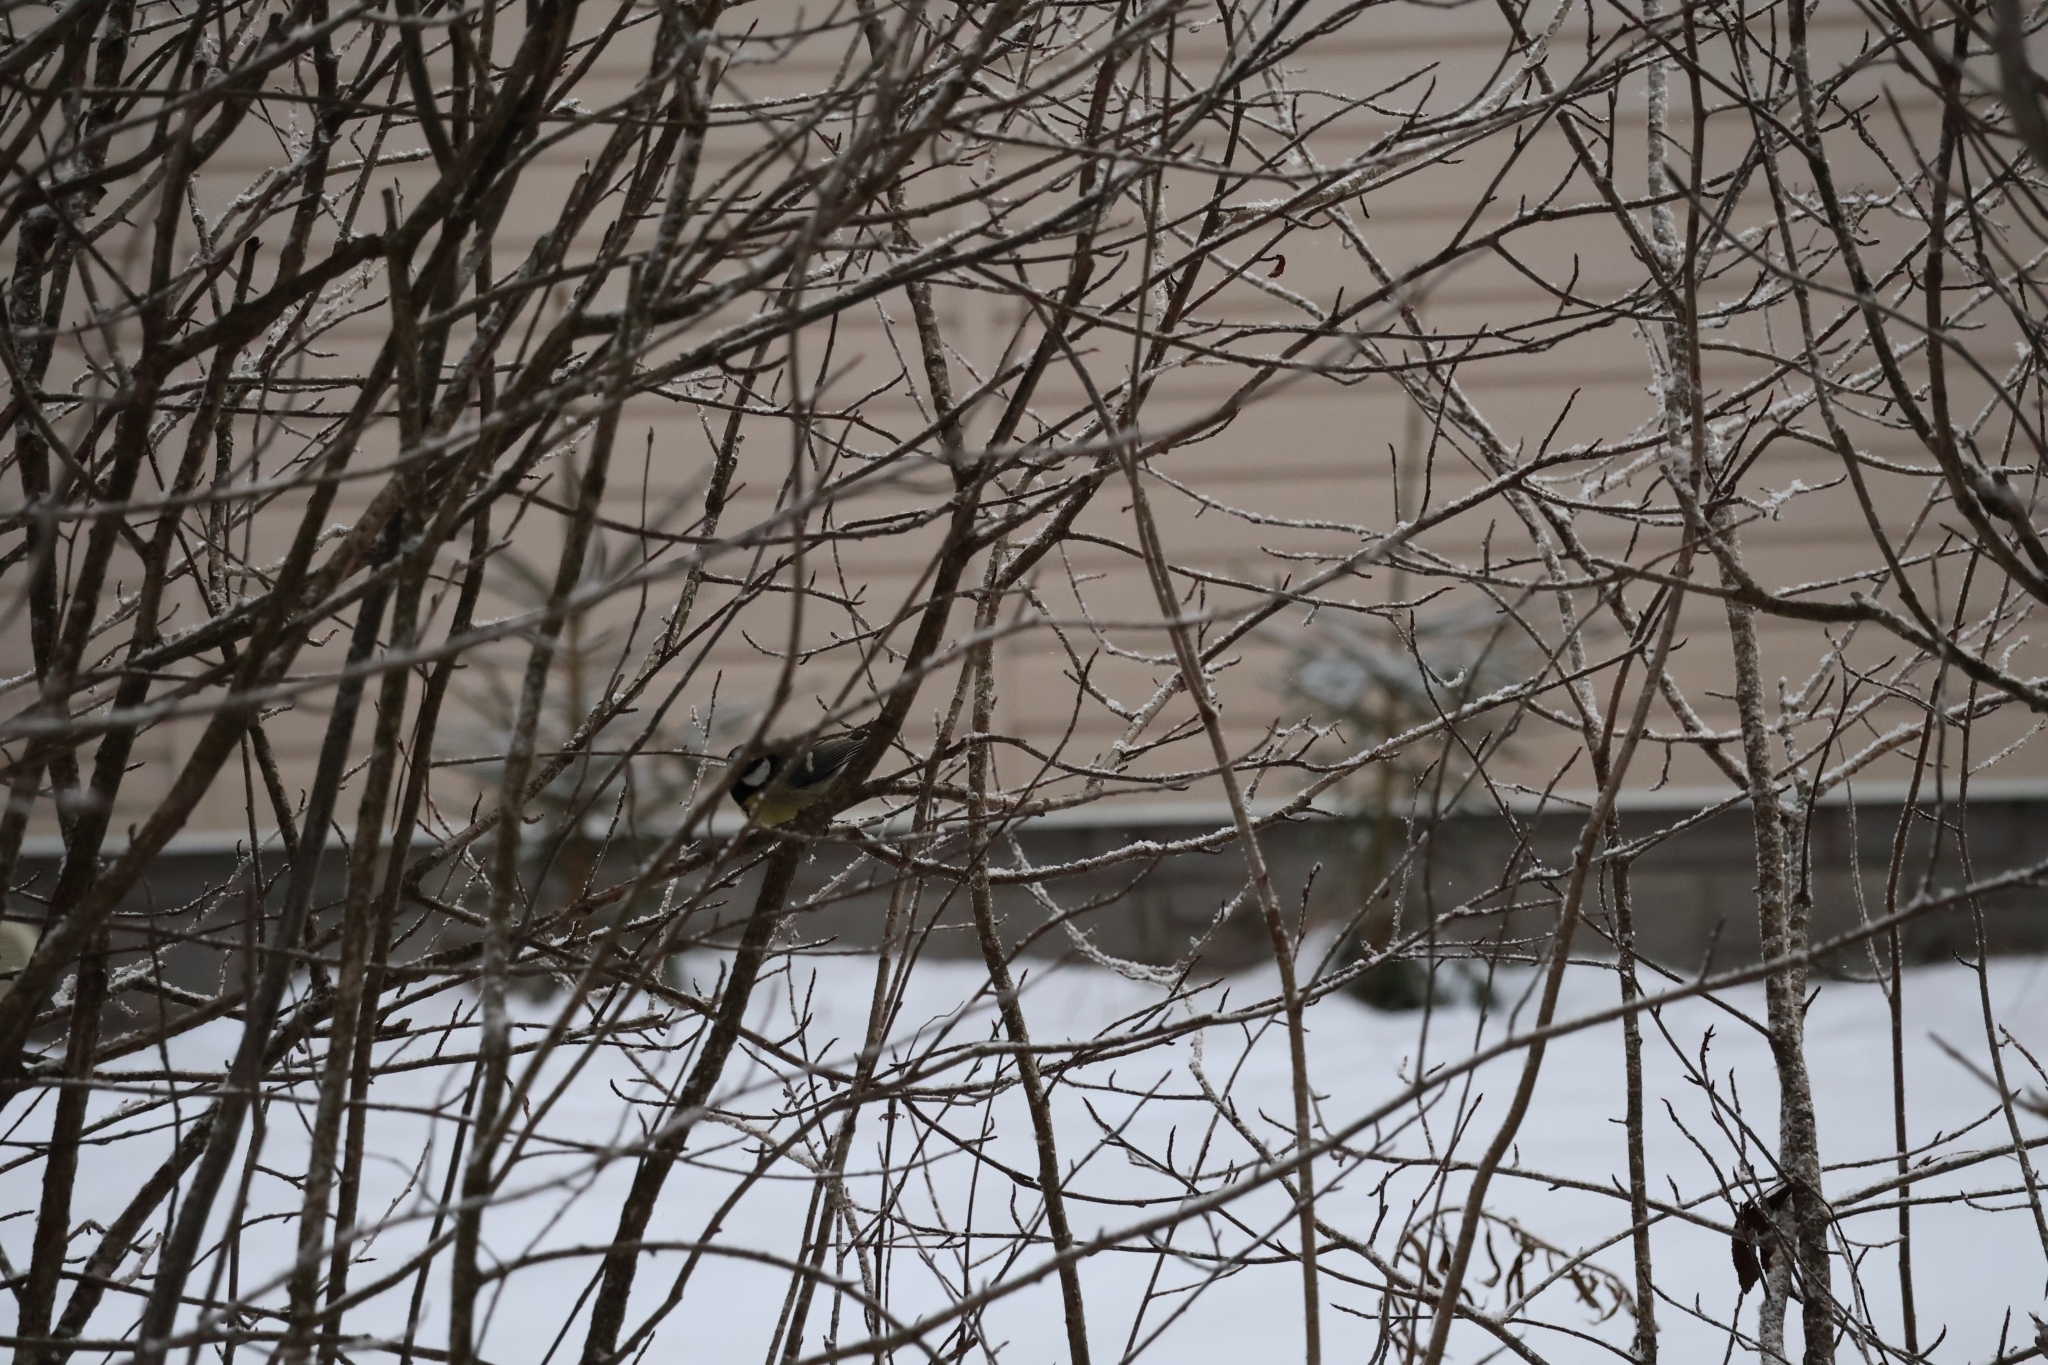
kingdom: Animalia
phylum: Chordata
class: Aves
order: Passeriformes
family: Paridae
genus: Parus
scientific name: Parus major
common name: Great tit
